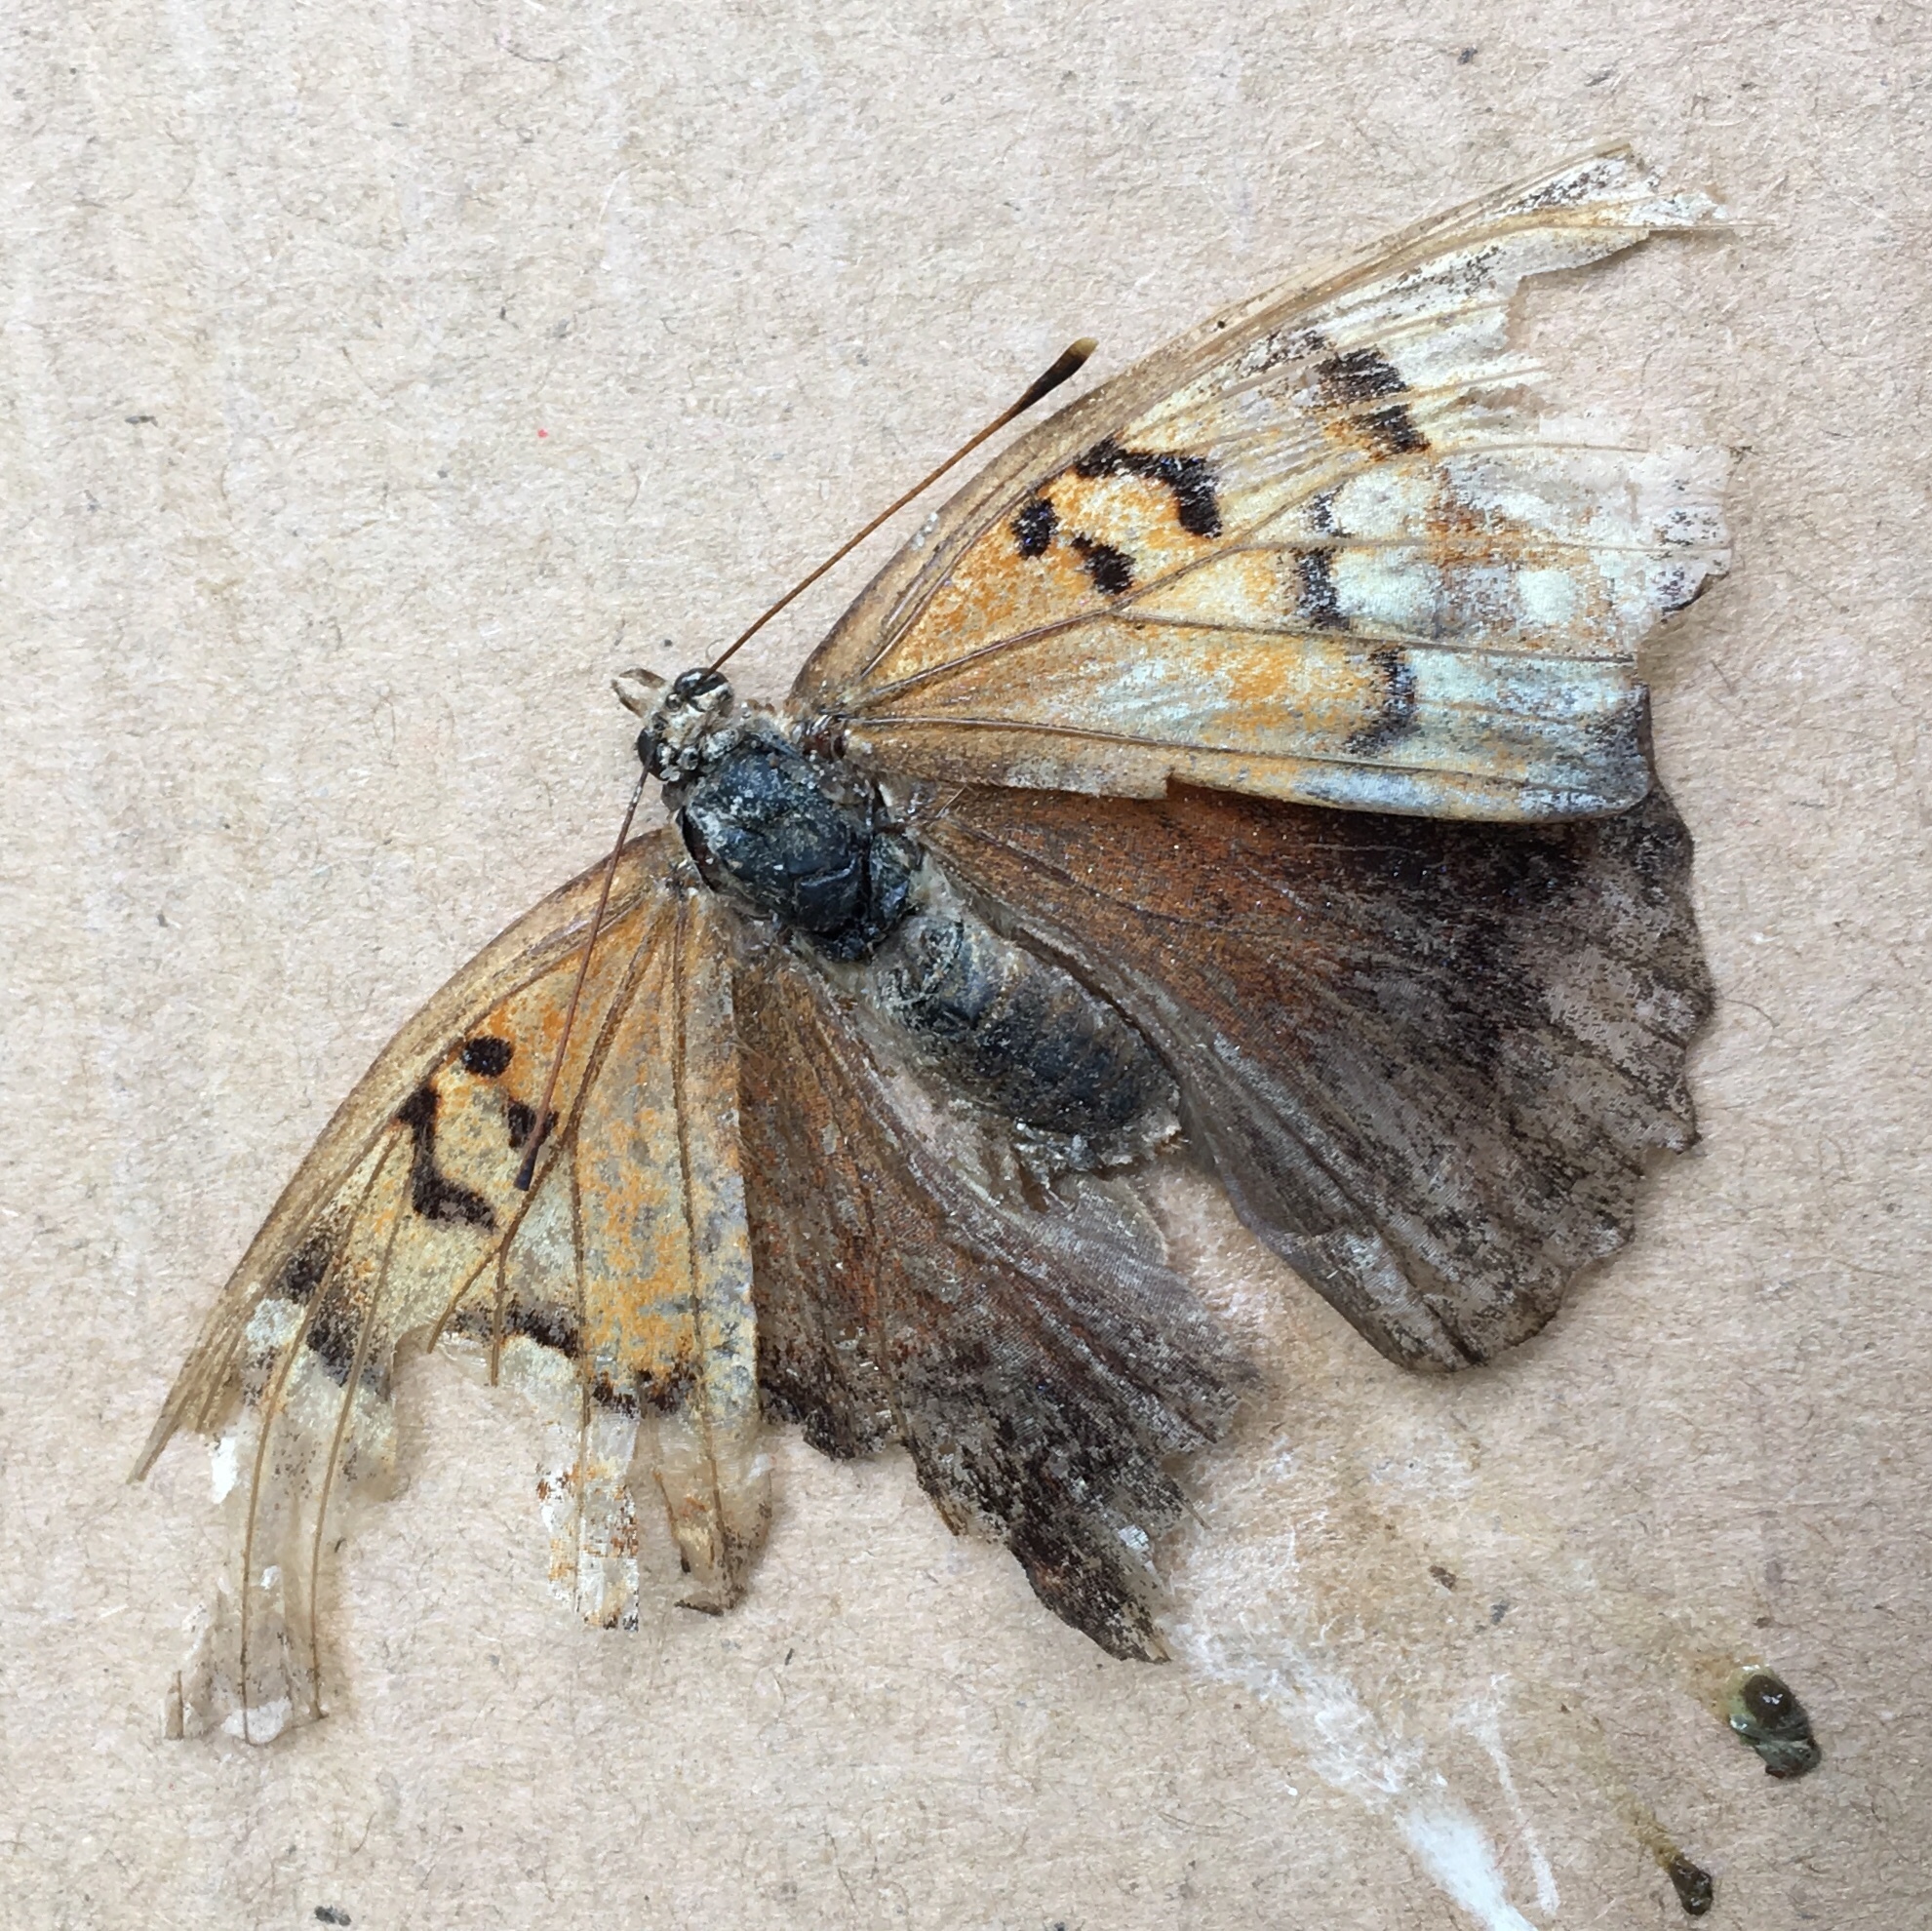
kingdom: Animalia
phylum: Arthropoda
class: Insecta
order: Lepidoptera
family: Nymphalidae
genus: Asterocampa
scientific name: Asterocampa clyton
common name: Tawny emperor
